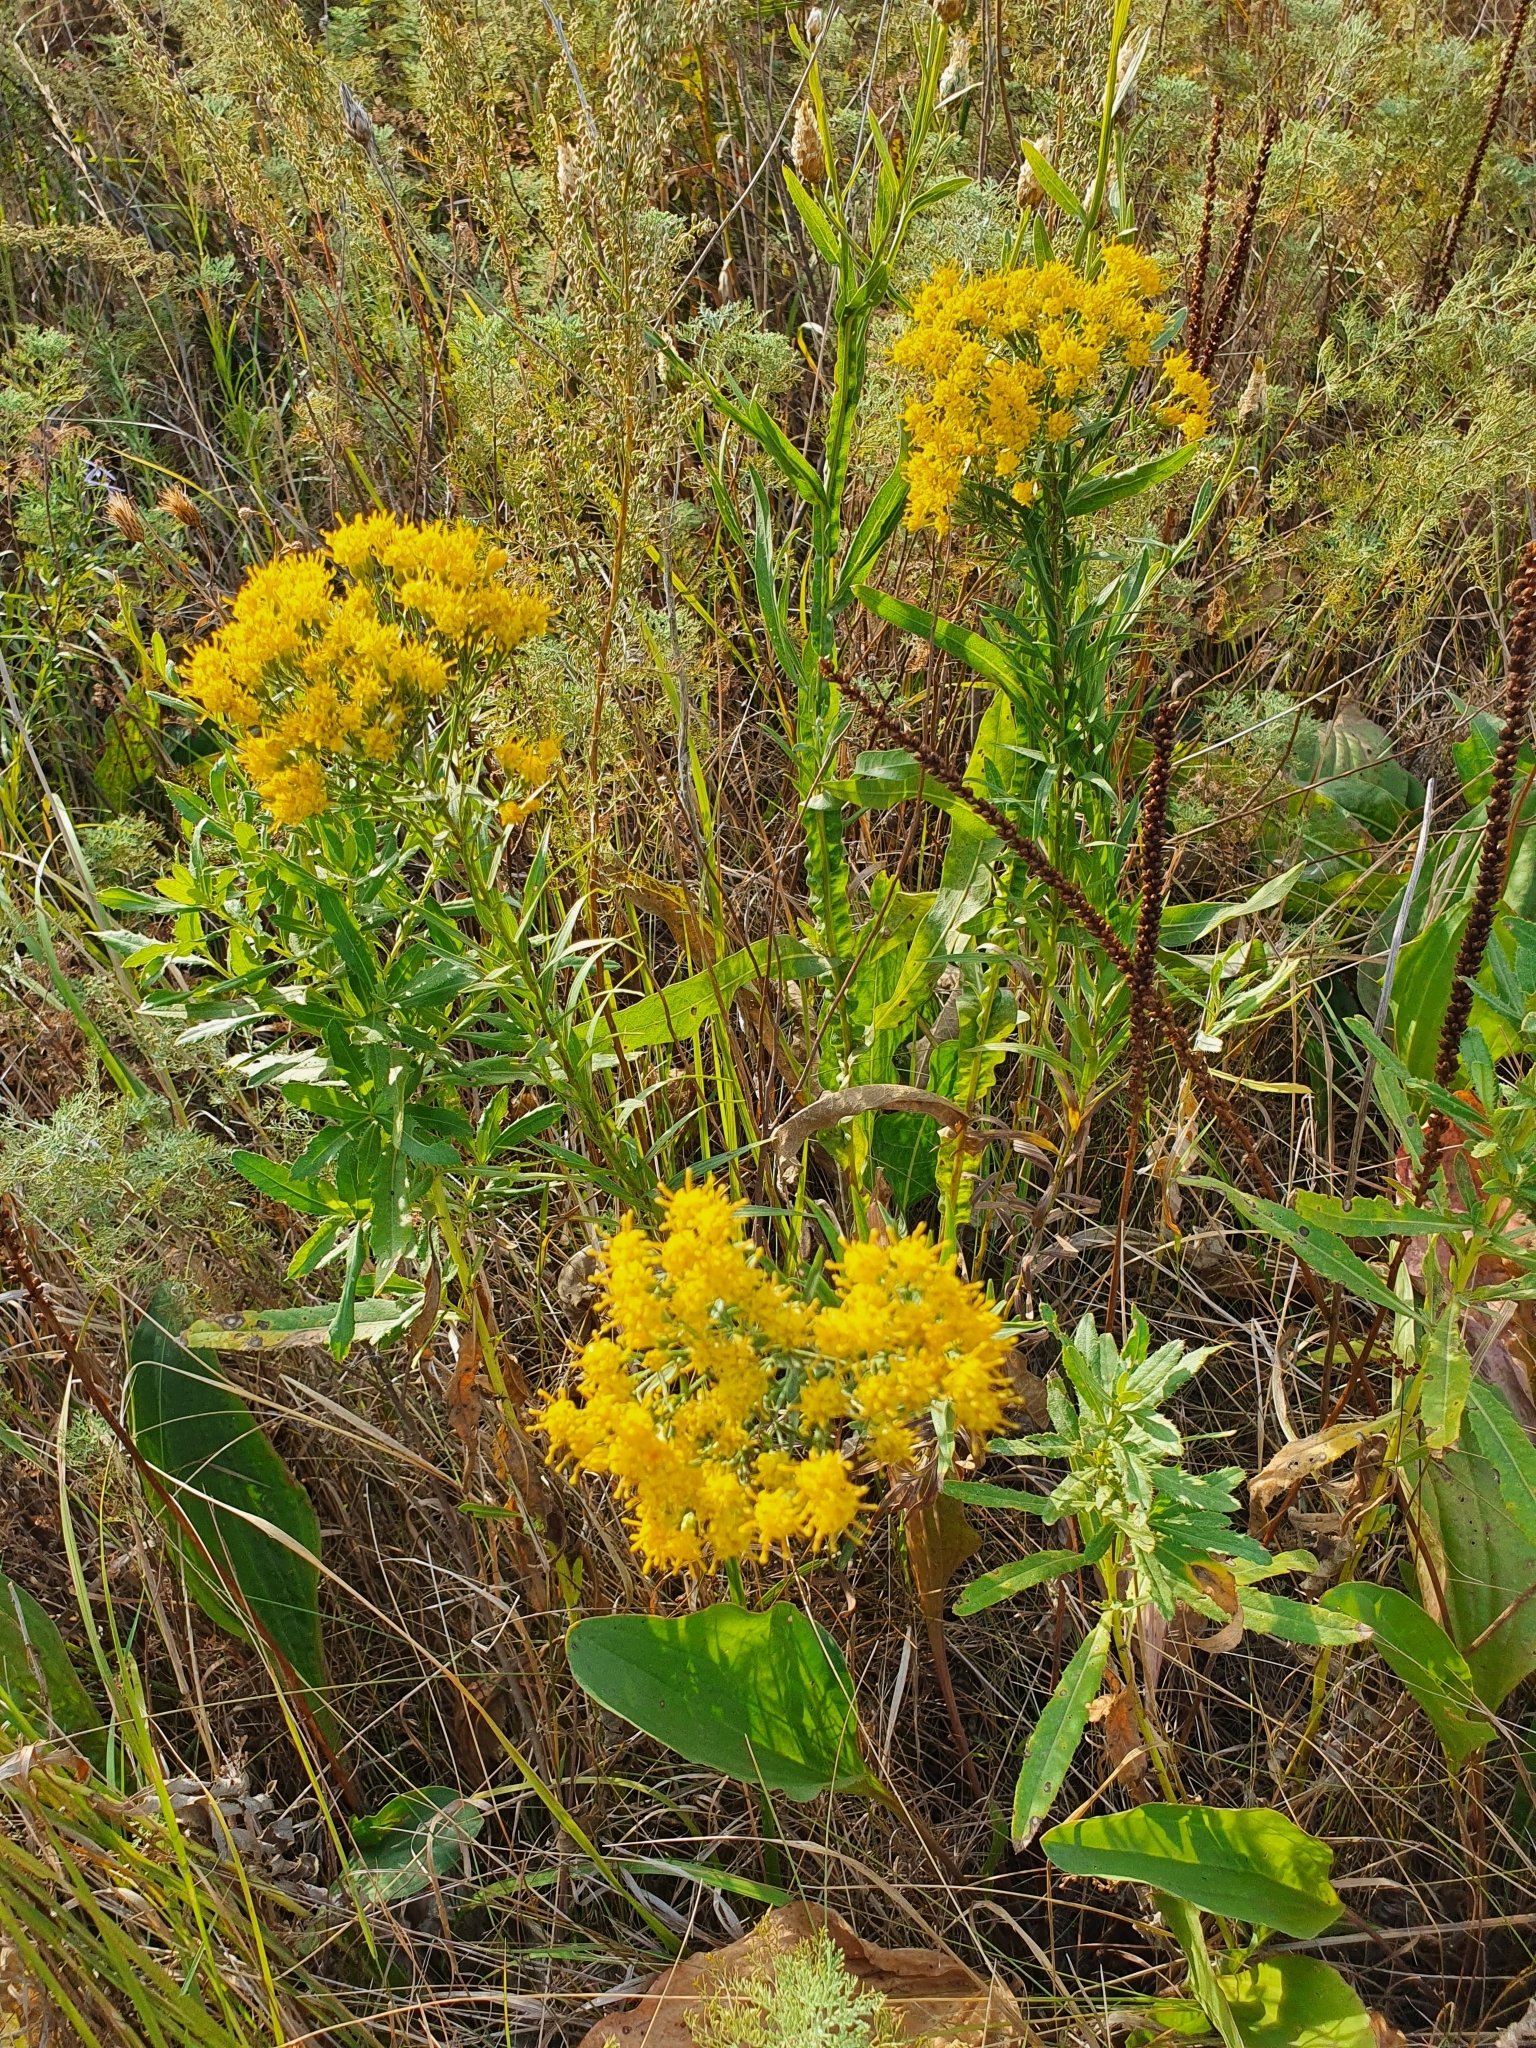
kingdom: Plantae
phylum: Tracheophyta
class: Magnoliopsida
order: Asterales
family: Asteraceae
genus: Galatella
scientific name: Galatella biflora
